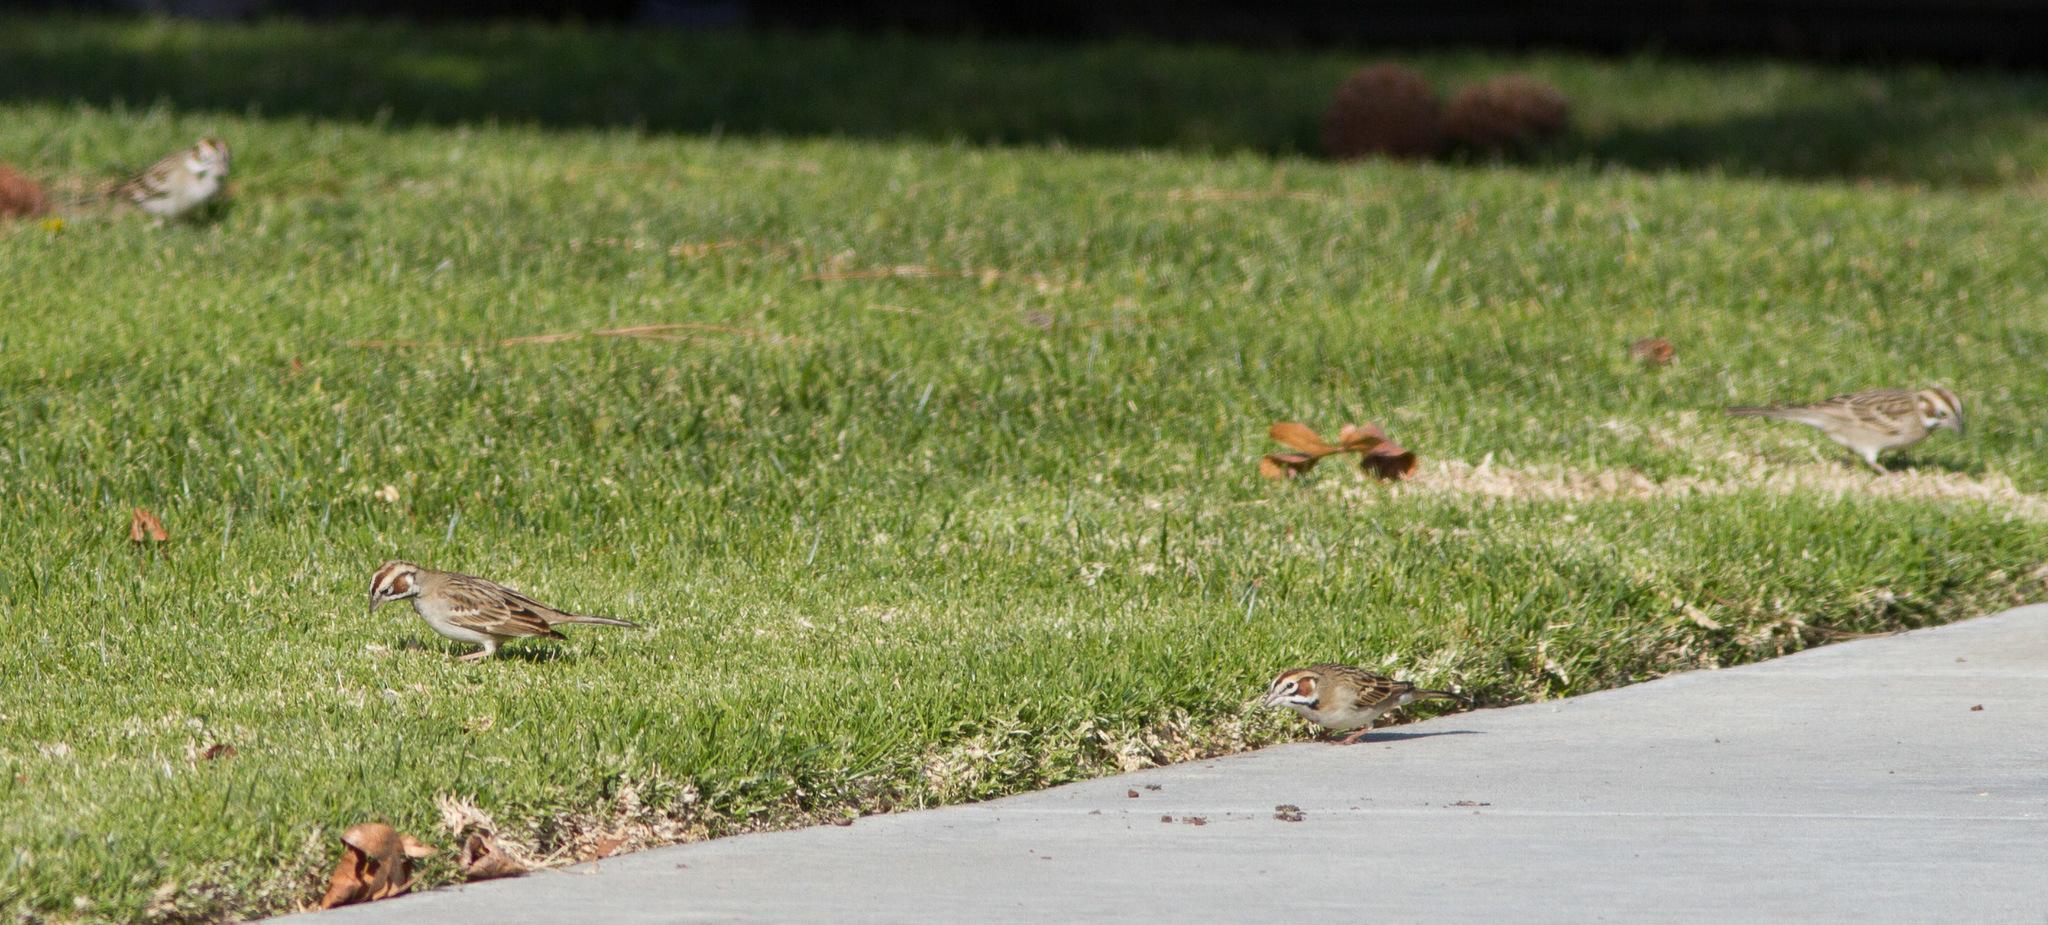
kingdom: Animalia
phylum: Chordata
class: Aves
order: Passeriformes
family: Passerellidae
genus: Chondestes
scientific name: Chondestes grammacus
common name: Lark sparrow
